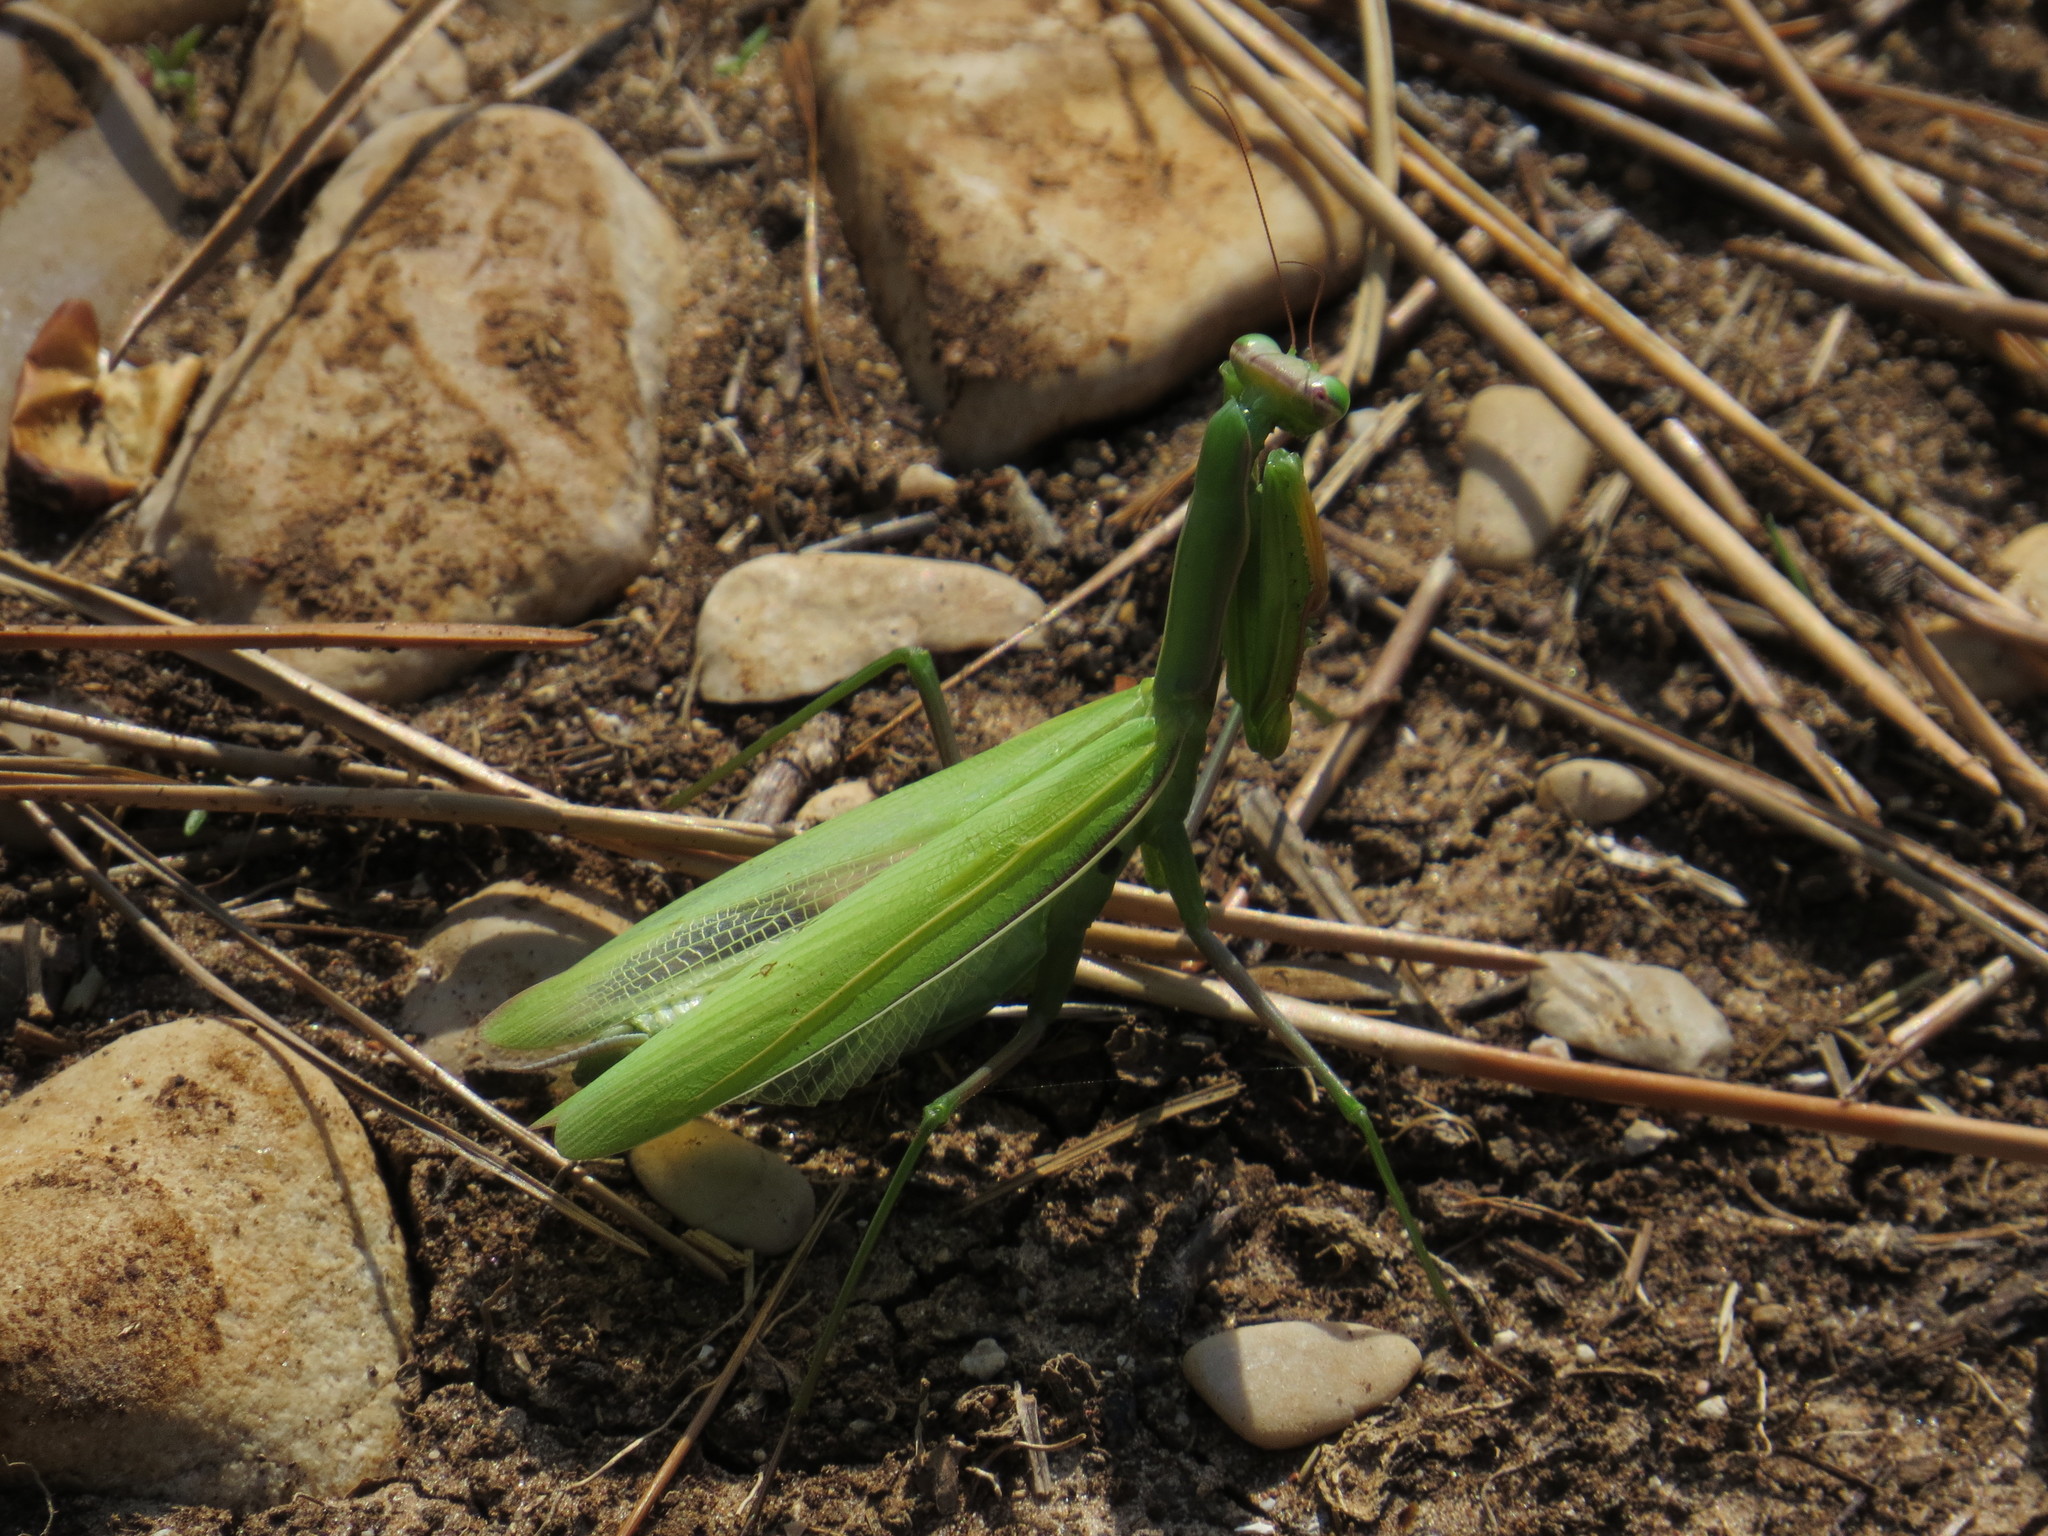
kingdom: Animalia
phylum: Arthropoda
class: Insecta
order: Mantodea
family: Mantidae
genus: Mantis
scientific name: Mantis religiosa
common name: Praying mantis
